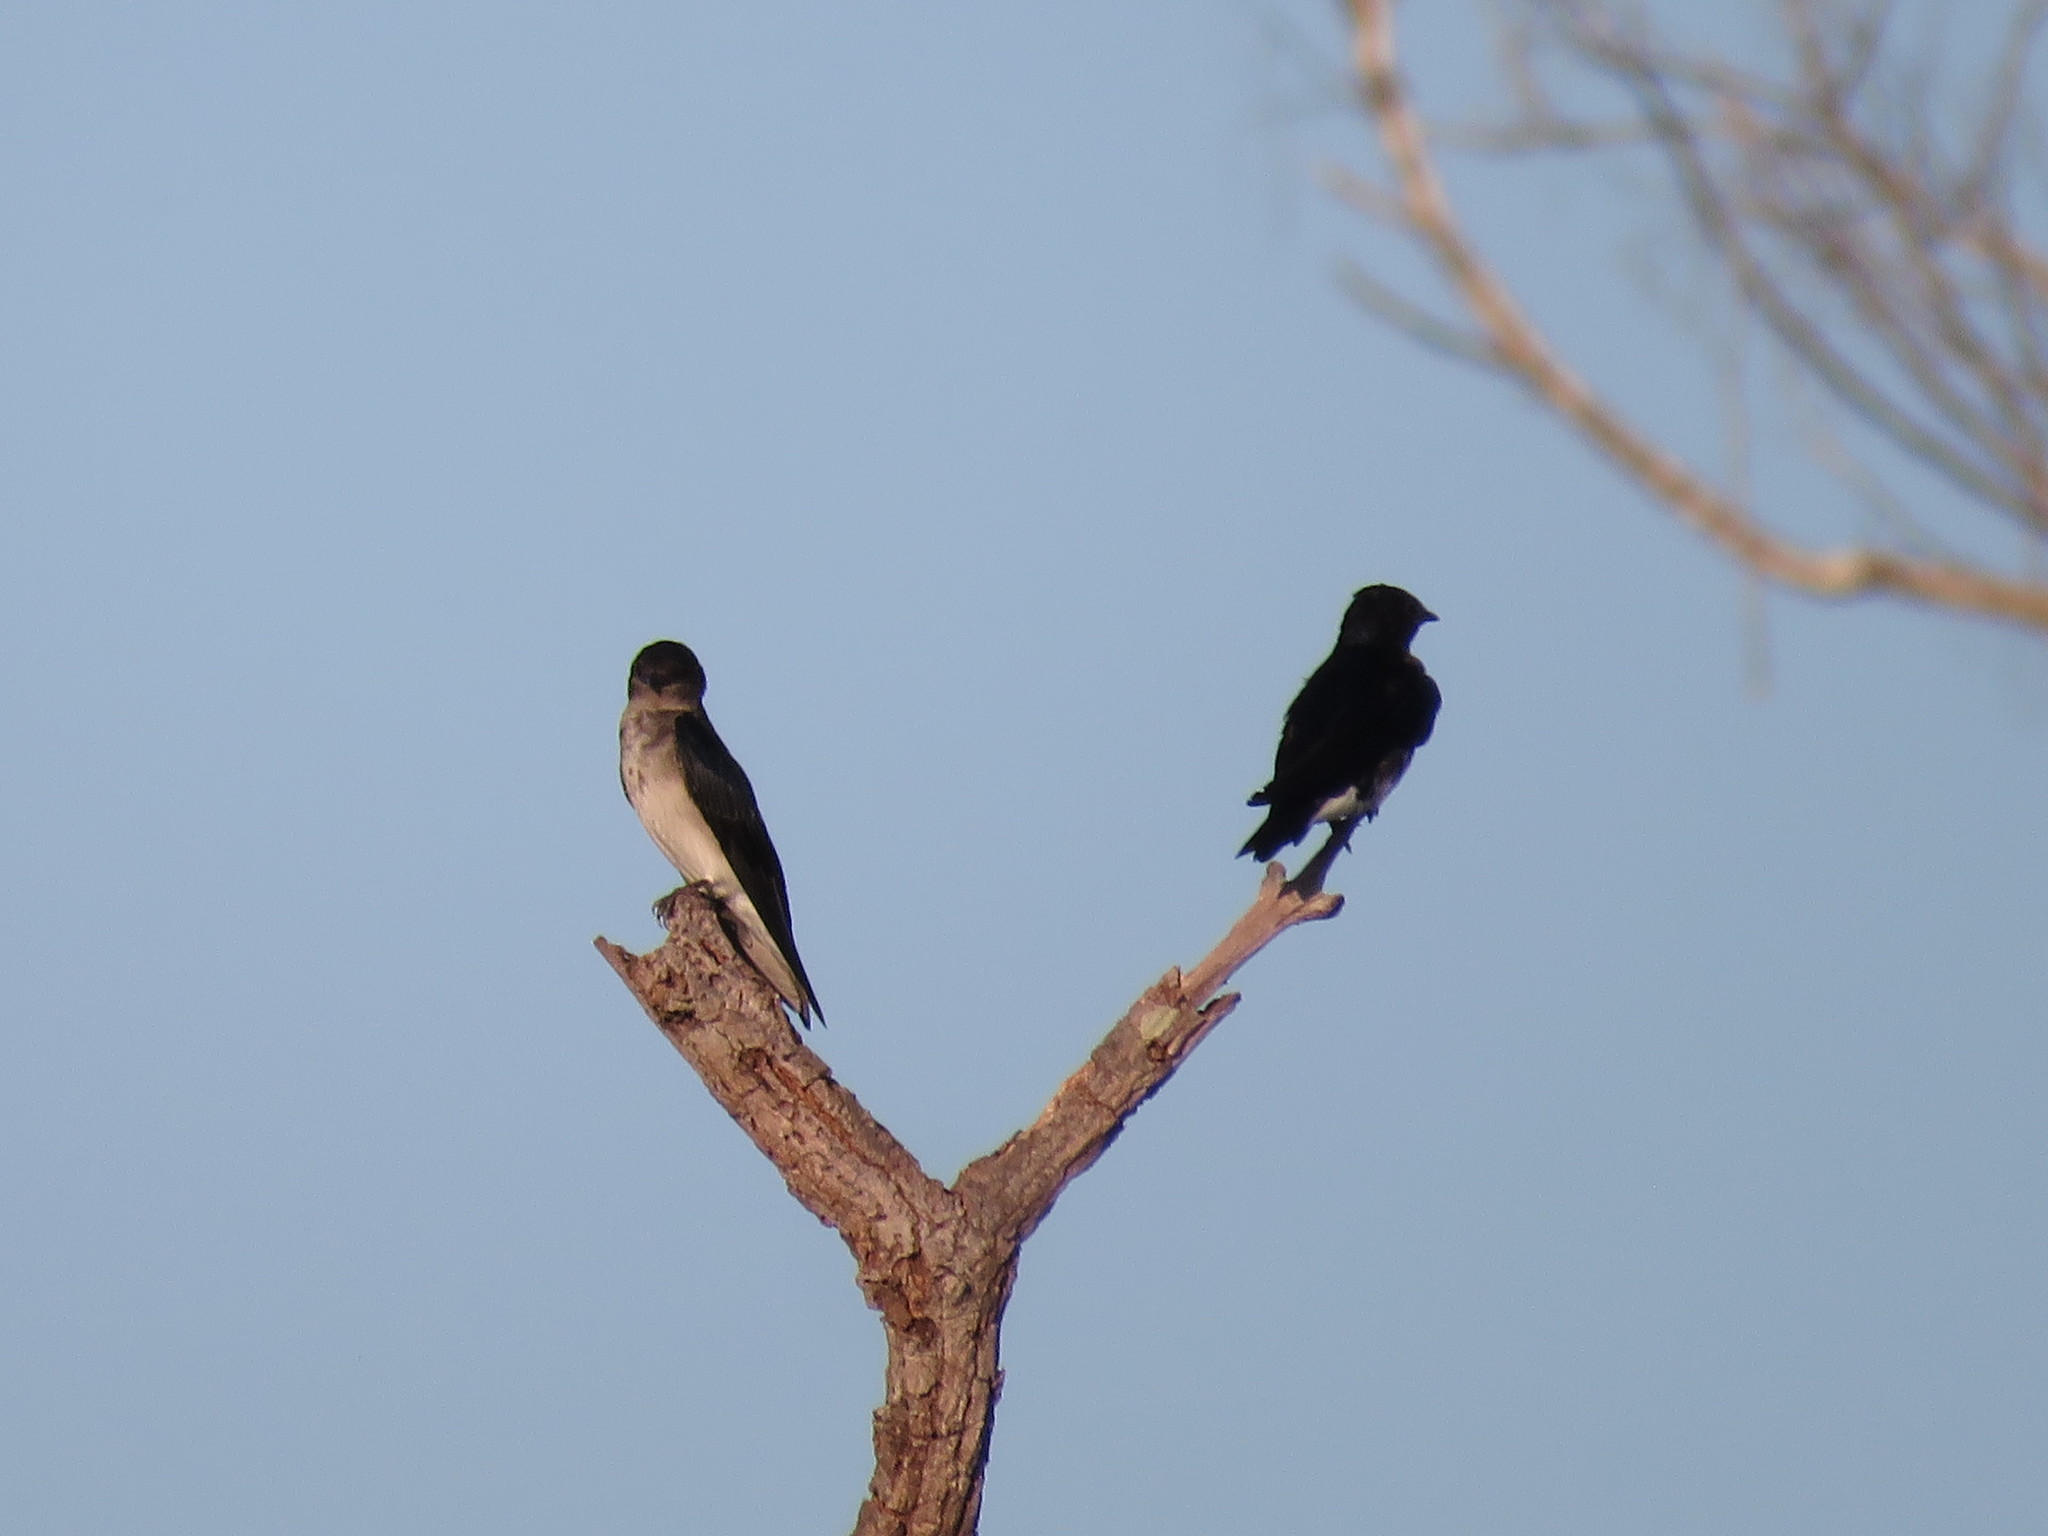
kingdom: Animalia
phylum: Chordata
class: Aves
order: Passeriformes
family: Hirundinidae
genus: Progne
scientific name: Progne chalybea
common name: Grey-breasted martin
